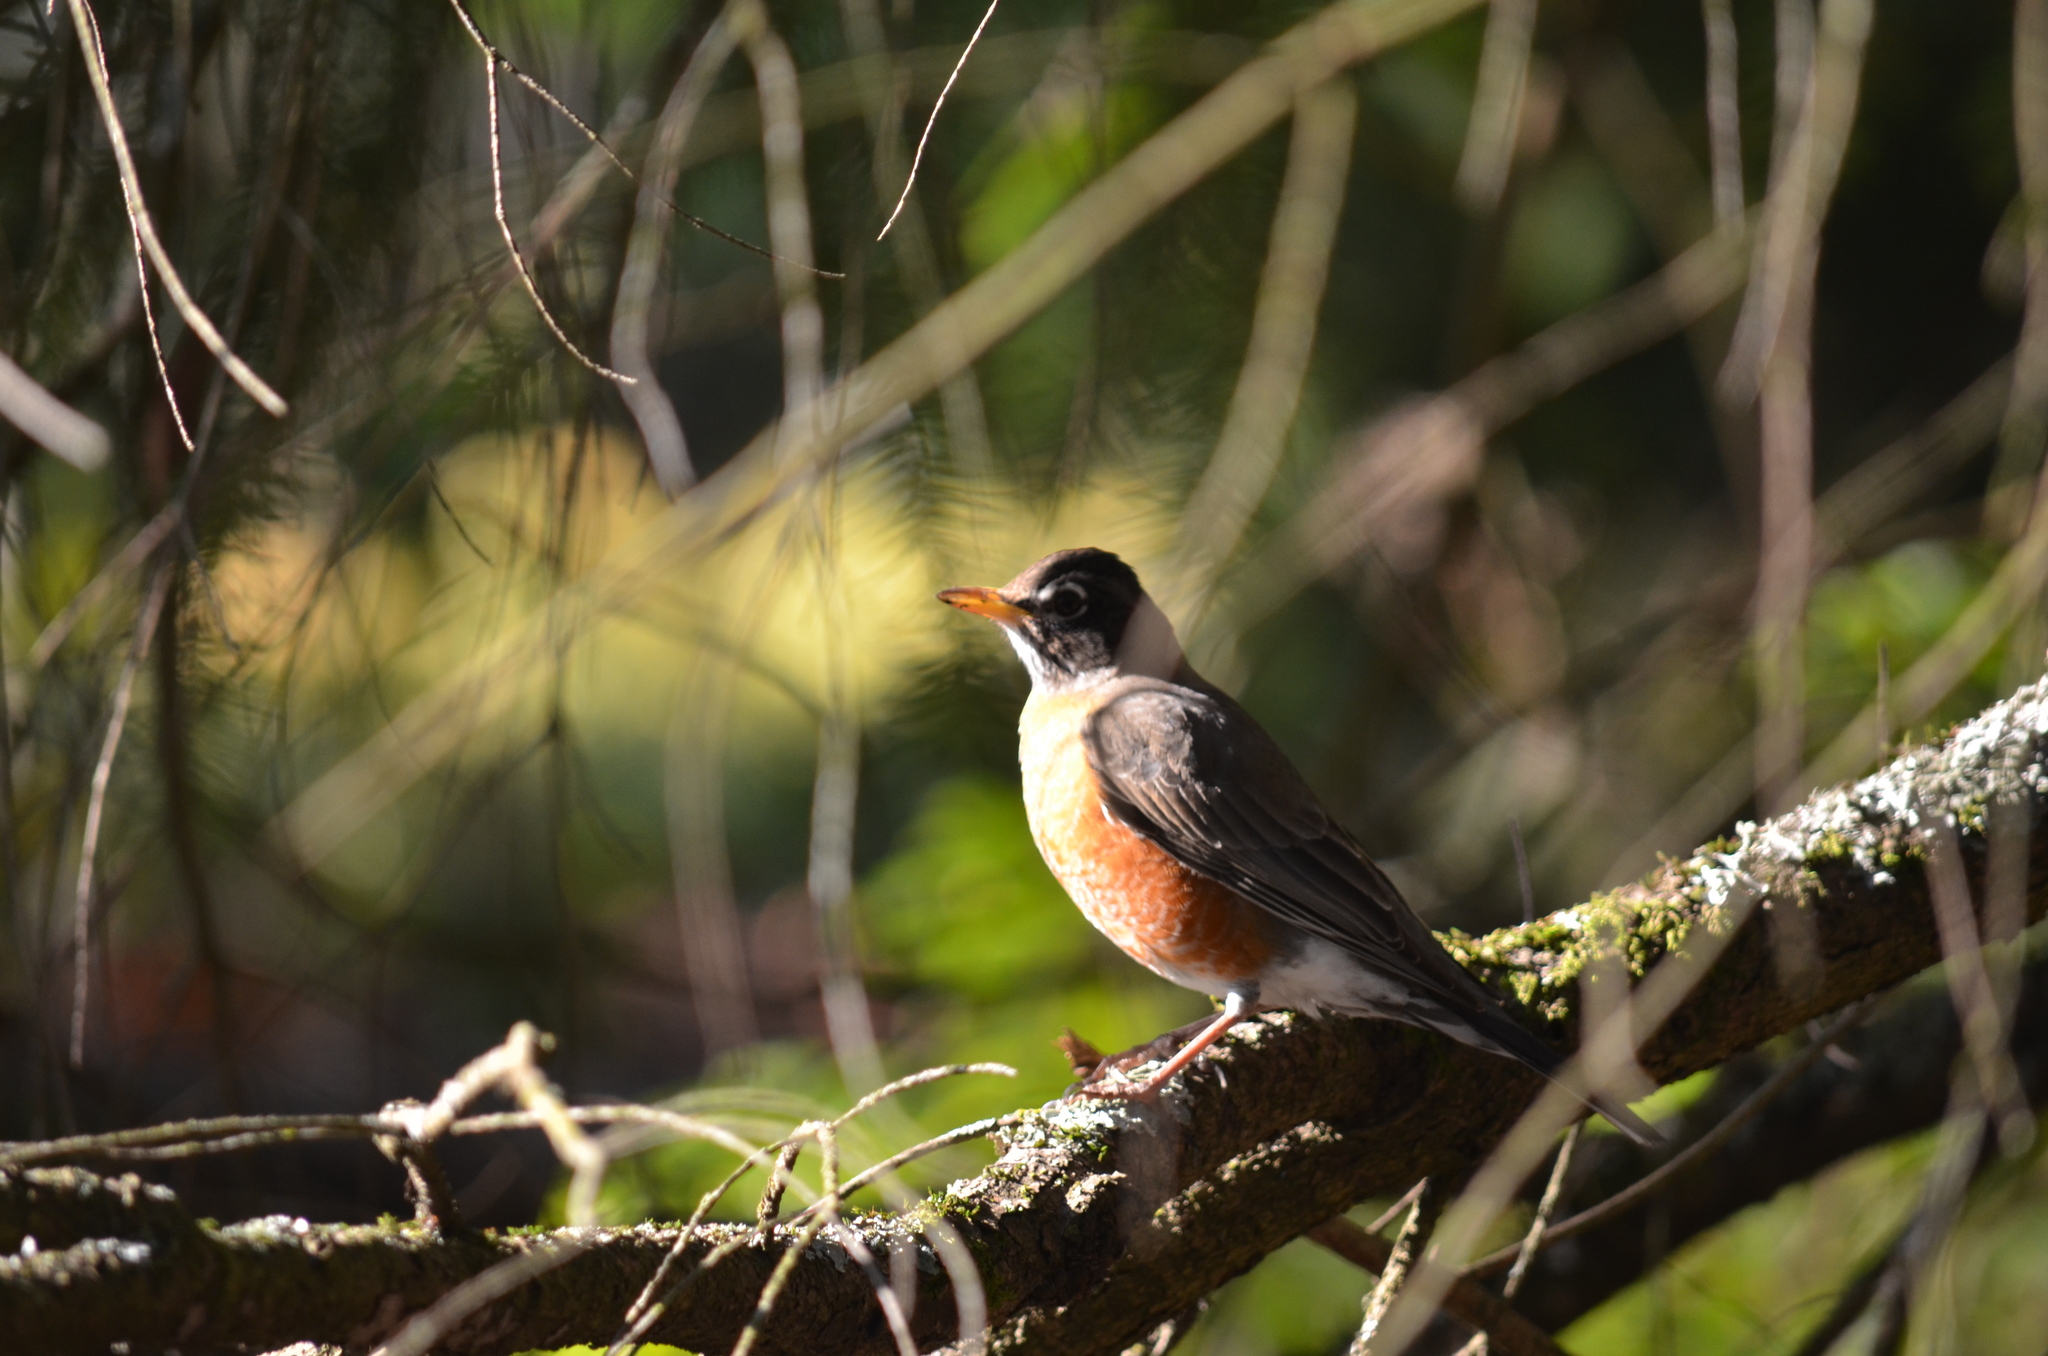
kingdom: Animalia
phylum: Chordata
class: Aves
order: Passeriformes
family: Turdidae
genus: Turdus
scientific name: Turdus migratorius
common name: American robin
